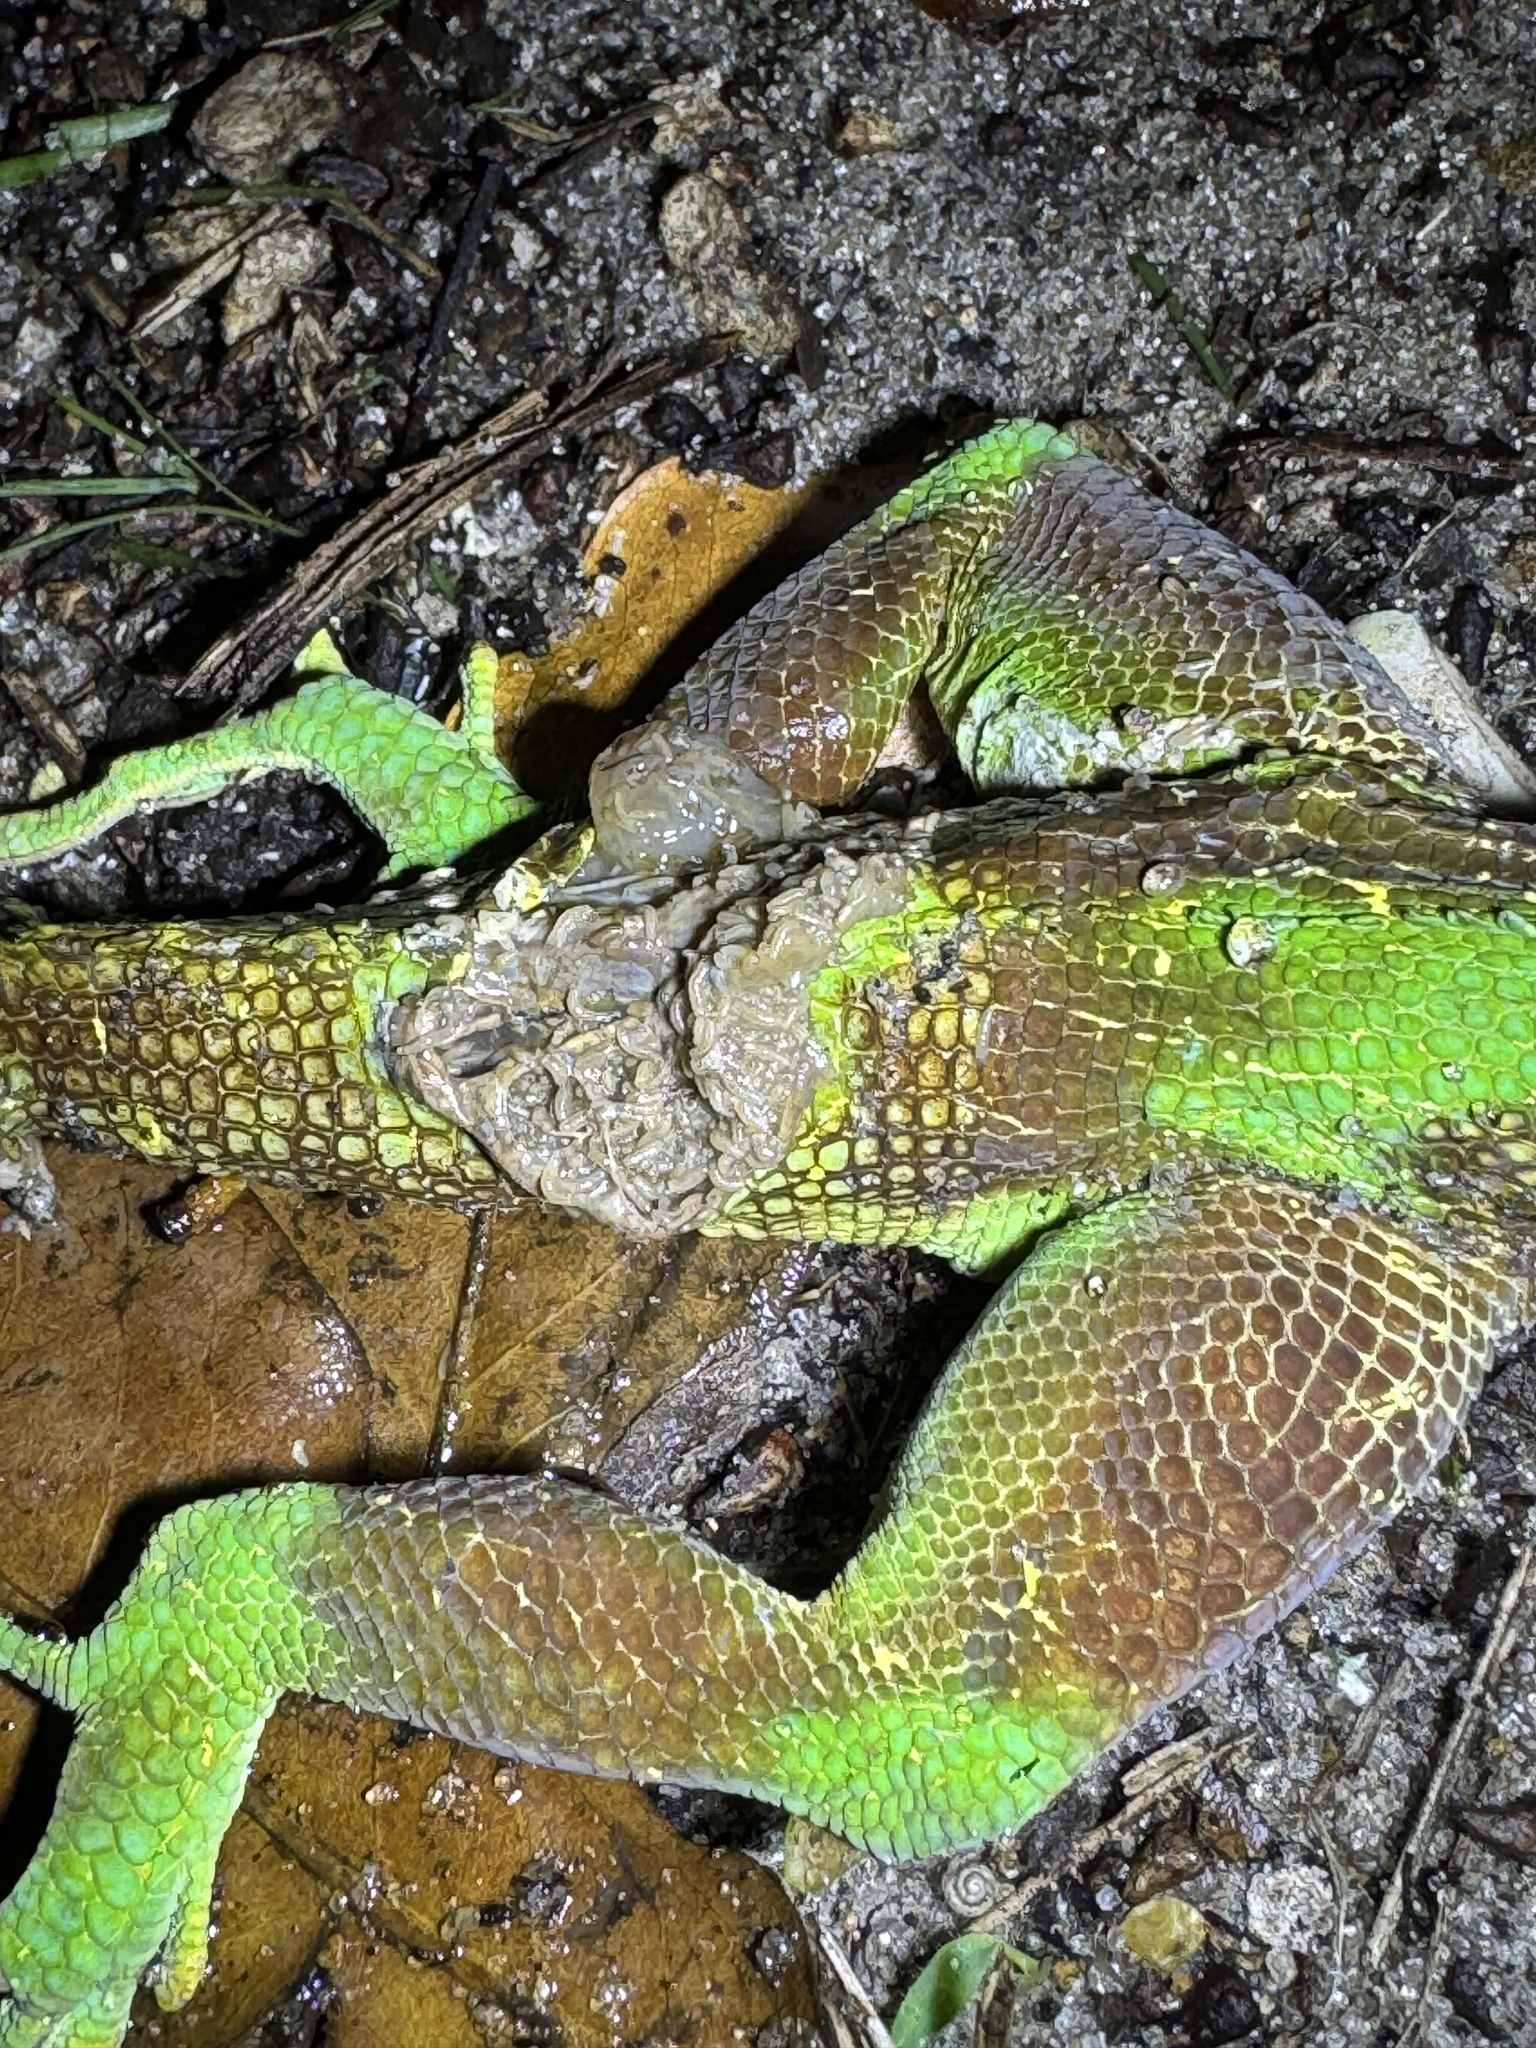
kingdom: Animalia
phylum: Chordata
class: Squamata
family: Dactyloidae
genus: Anolis
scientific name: Anolis equestris
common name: Knight anole
